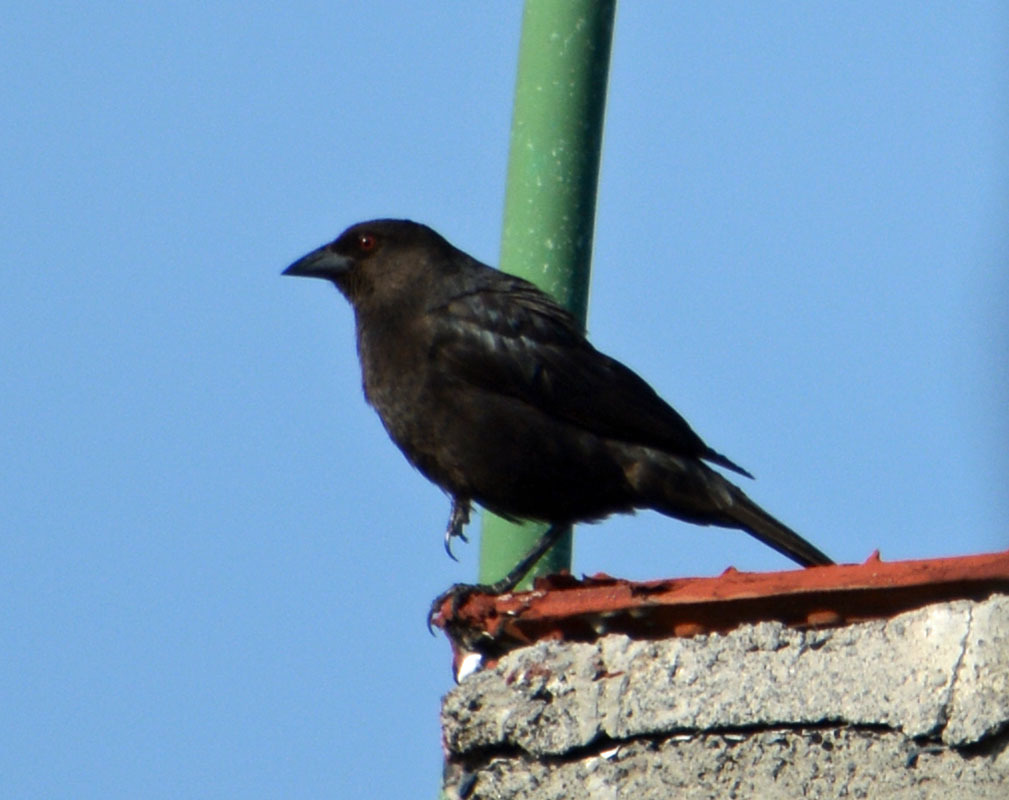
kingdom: Animalia
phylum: Chordata
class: Aves
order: Passeriformes
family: Icteridae
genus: Molothrus
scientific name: Molothrus aeneus
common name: Bronzed cowbird
